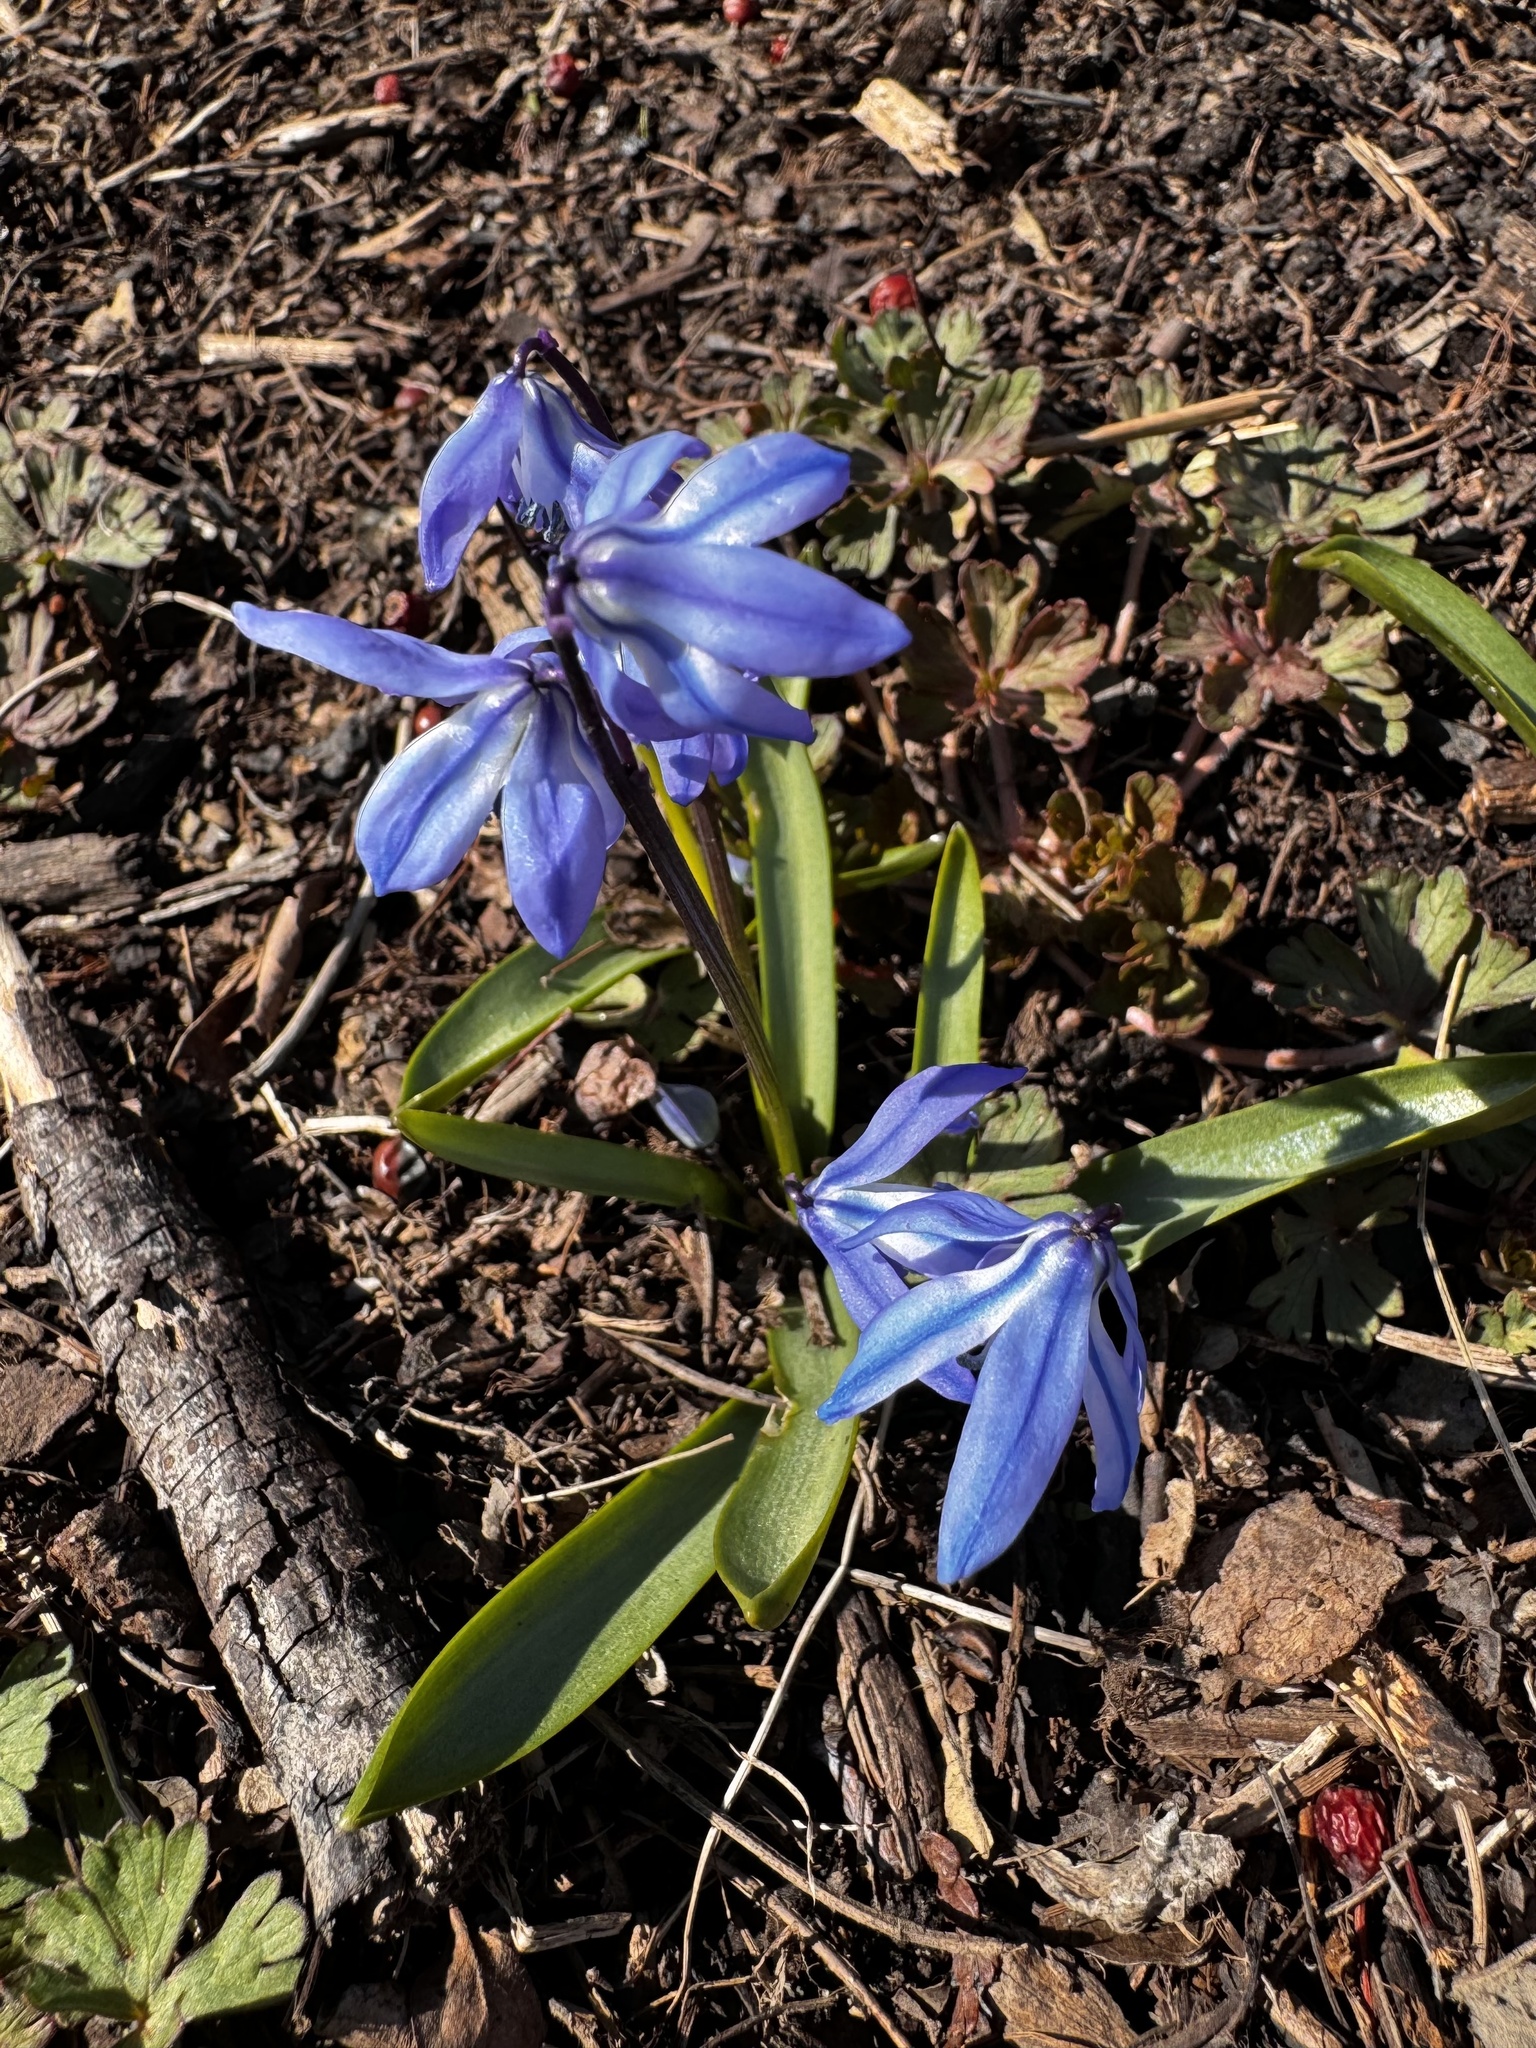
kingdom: Plantae
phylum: Tracheophyta
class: Liliopsida
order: Asparagales
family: Asparagaceae
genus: Scilla
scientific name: Scilla siberica
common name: Siberian squill
